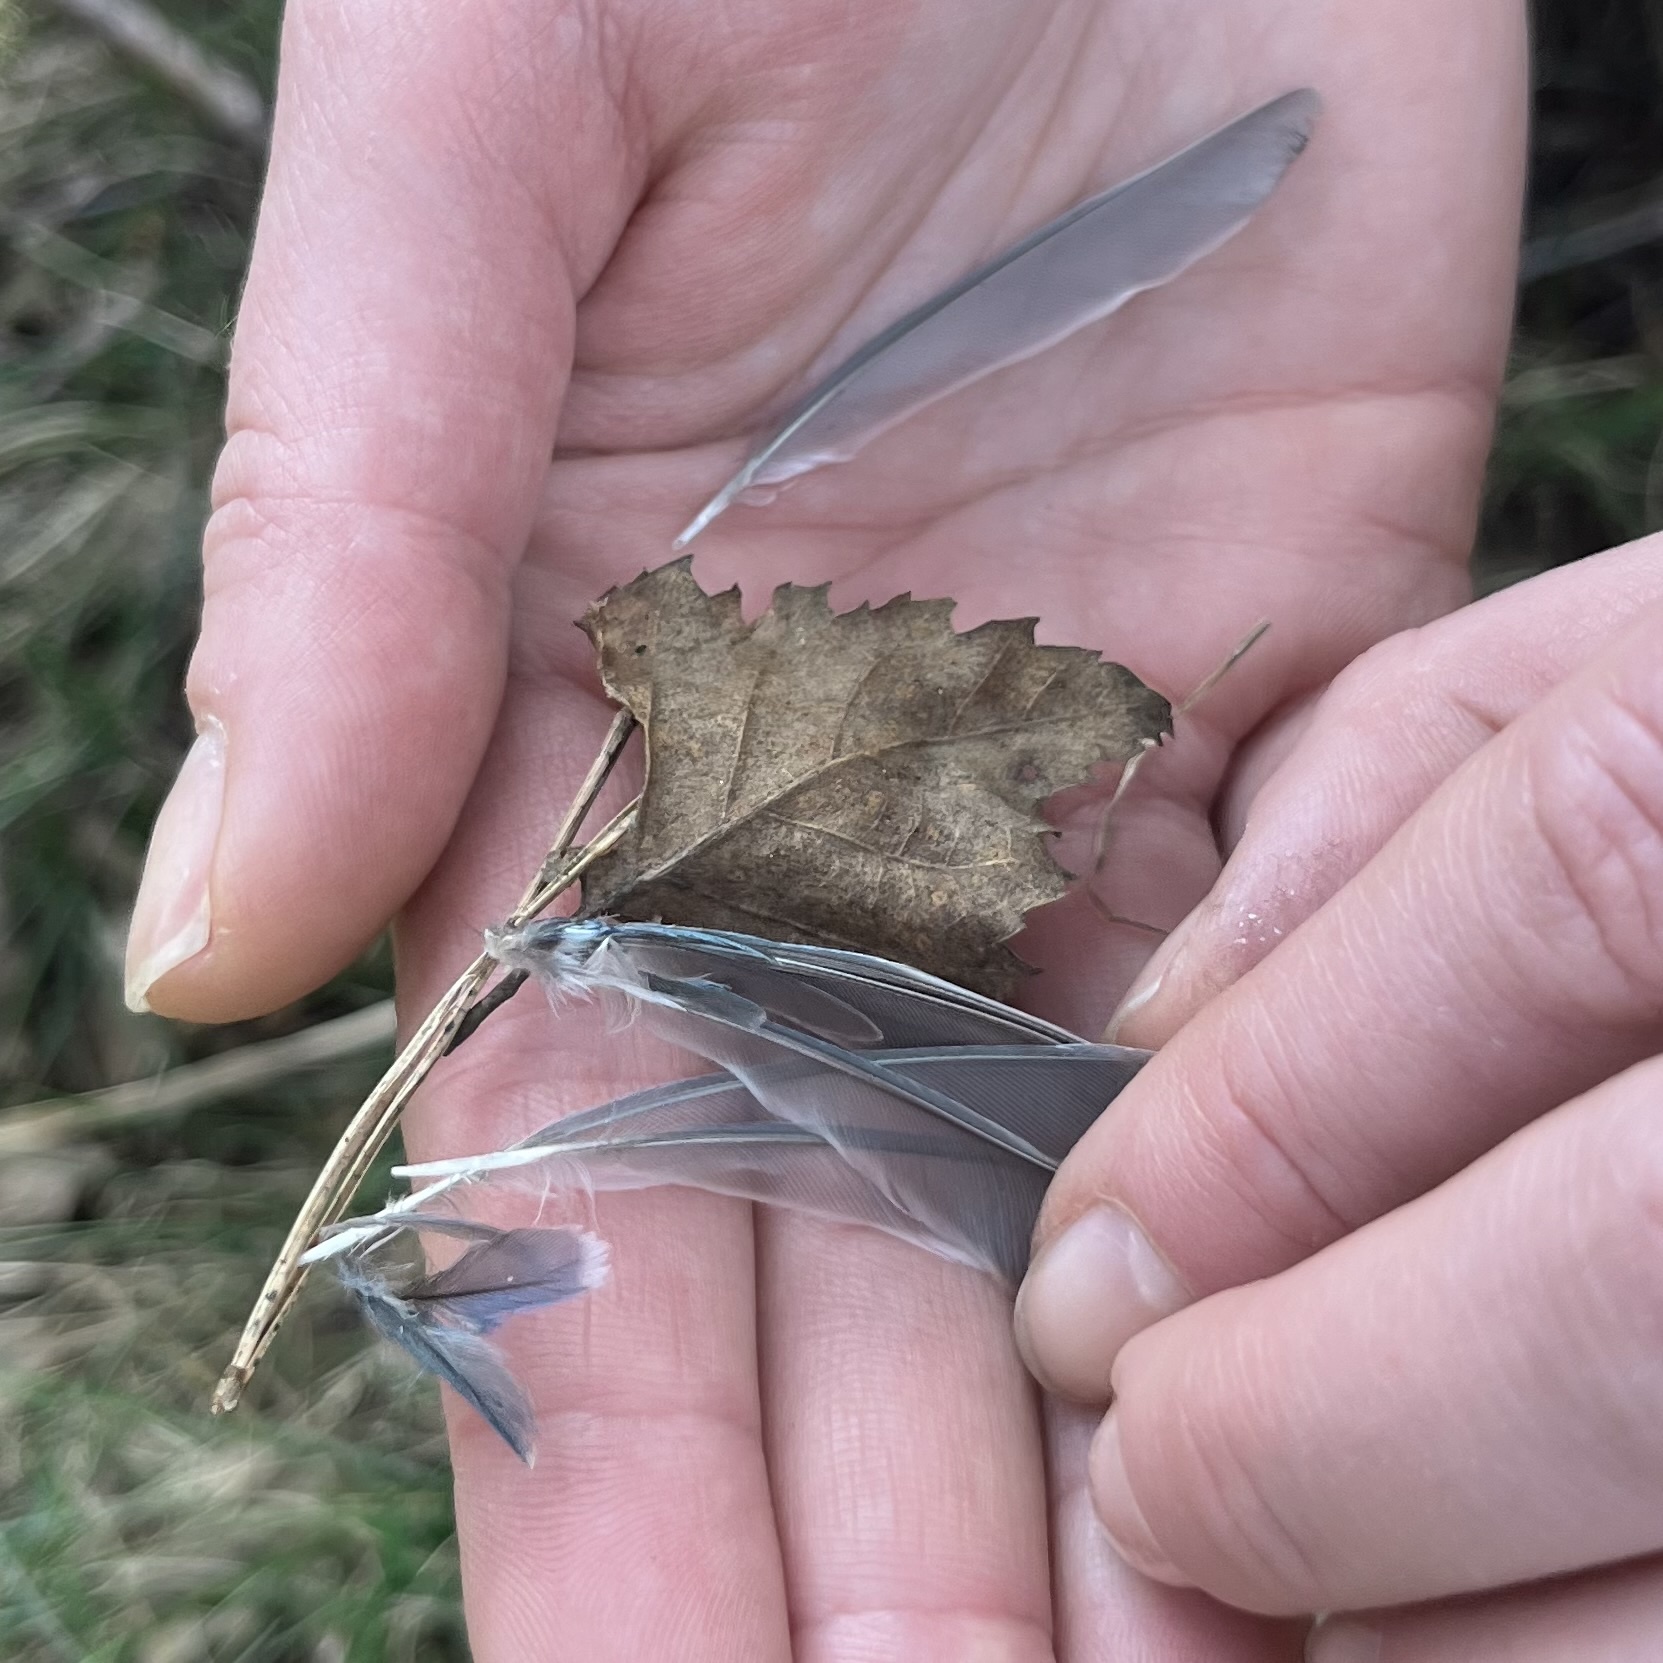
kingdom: Animalia
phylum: Chordata
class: Aves
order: Passeriformes
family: Paridae
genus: Cyanistes
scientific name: Cyanistes caeruleus
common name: Eurasian blue tit
